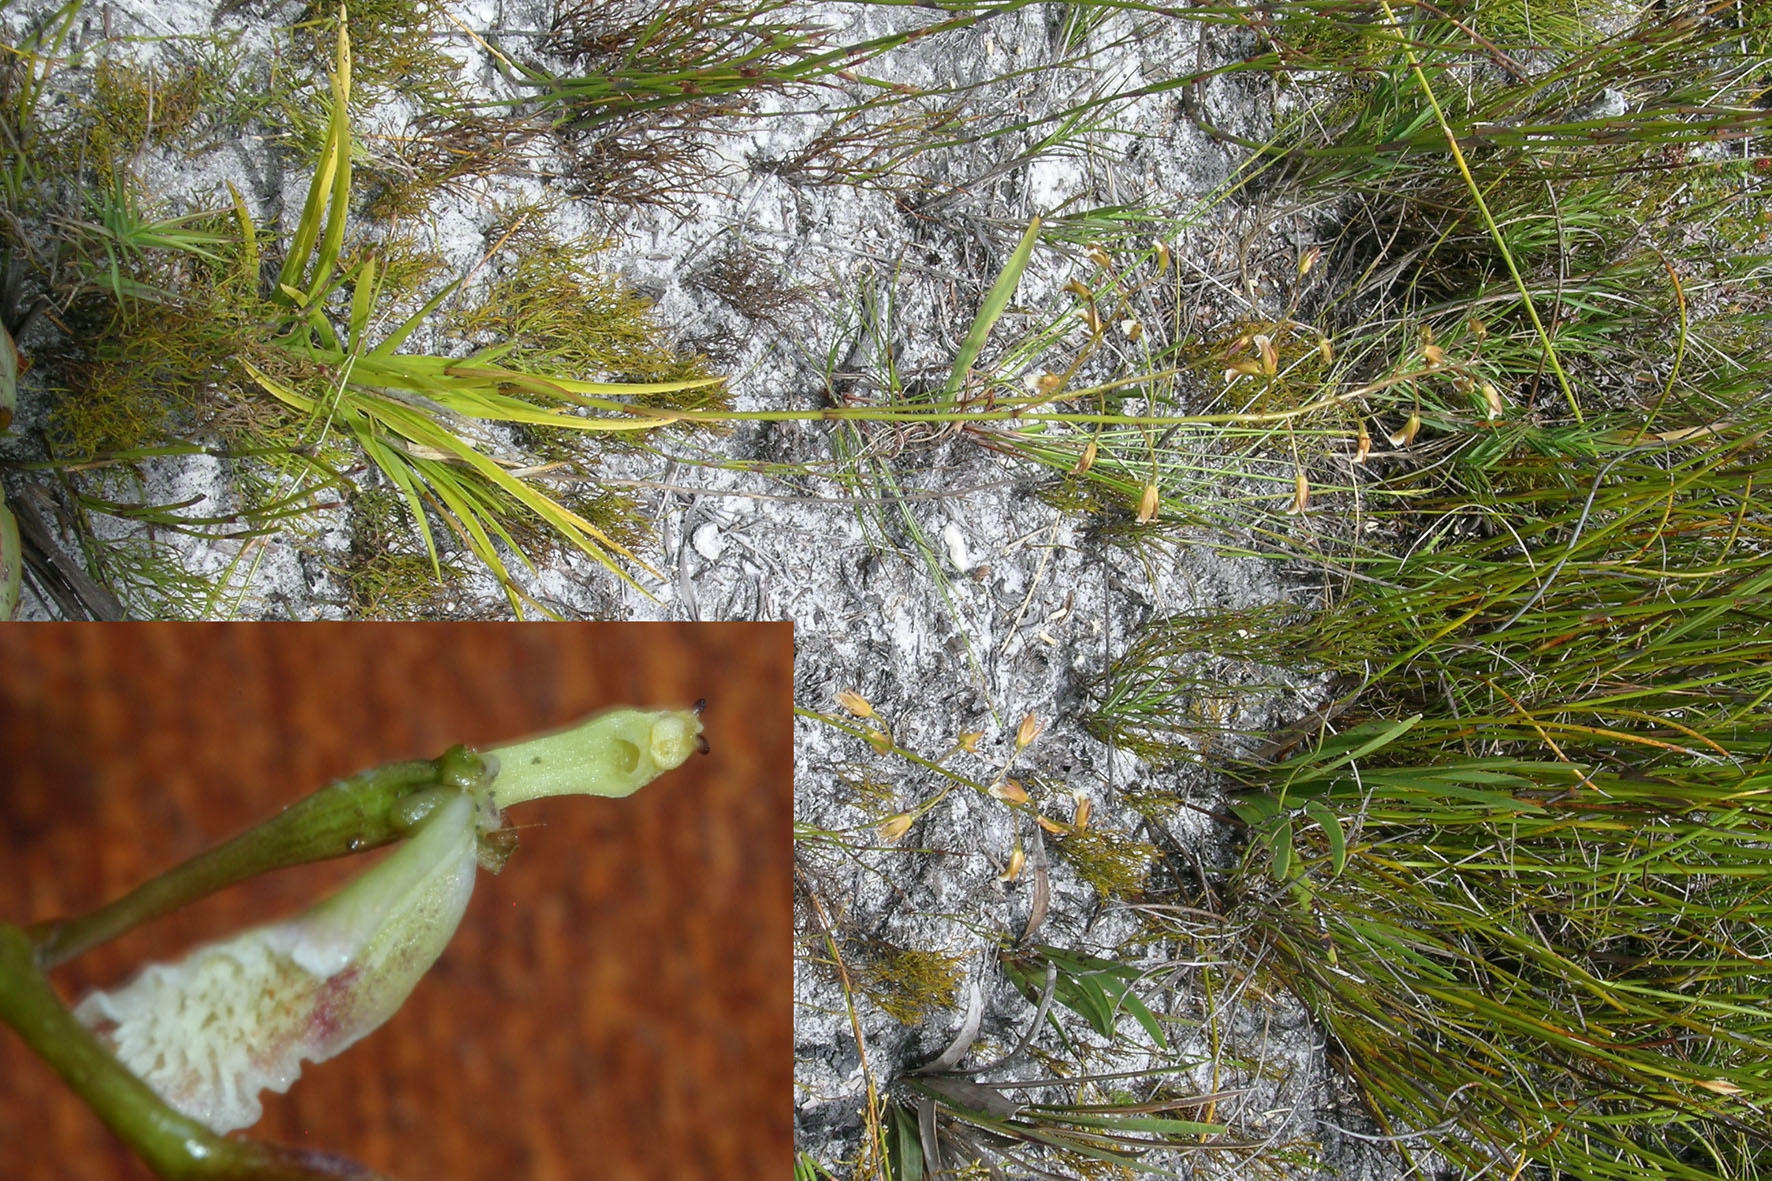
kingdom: Plantae
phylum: Tracheophyta
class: Liliopsida
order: Asparagales
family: Orchidaceae
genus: Eulophia
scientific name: Eulophia tristis
